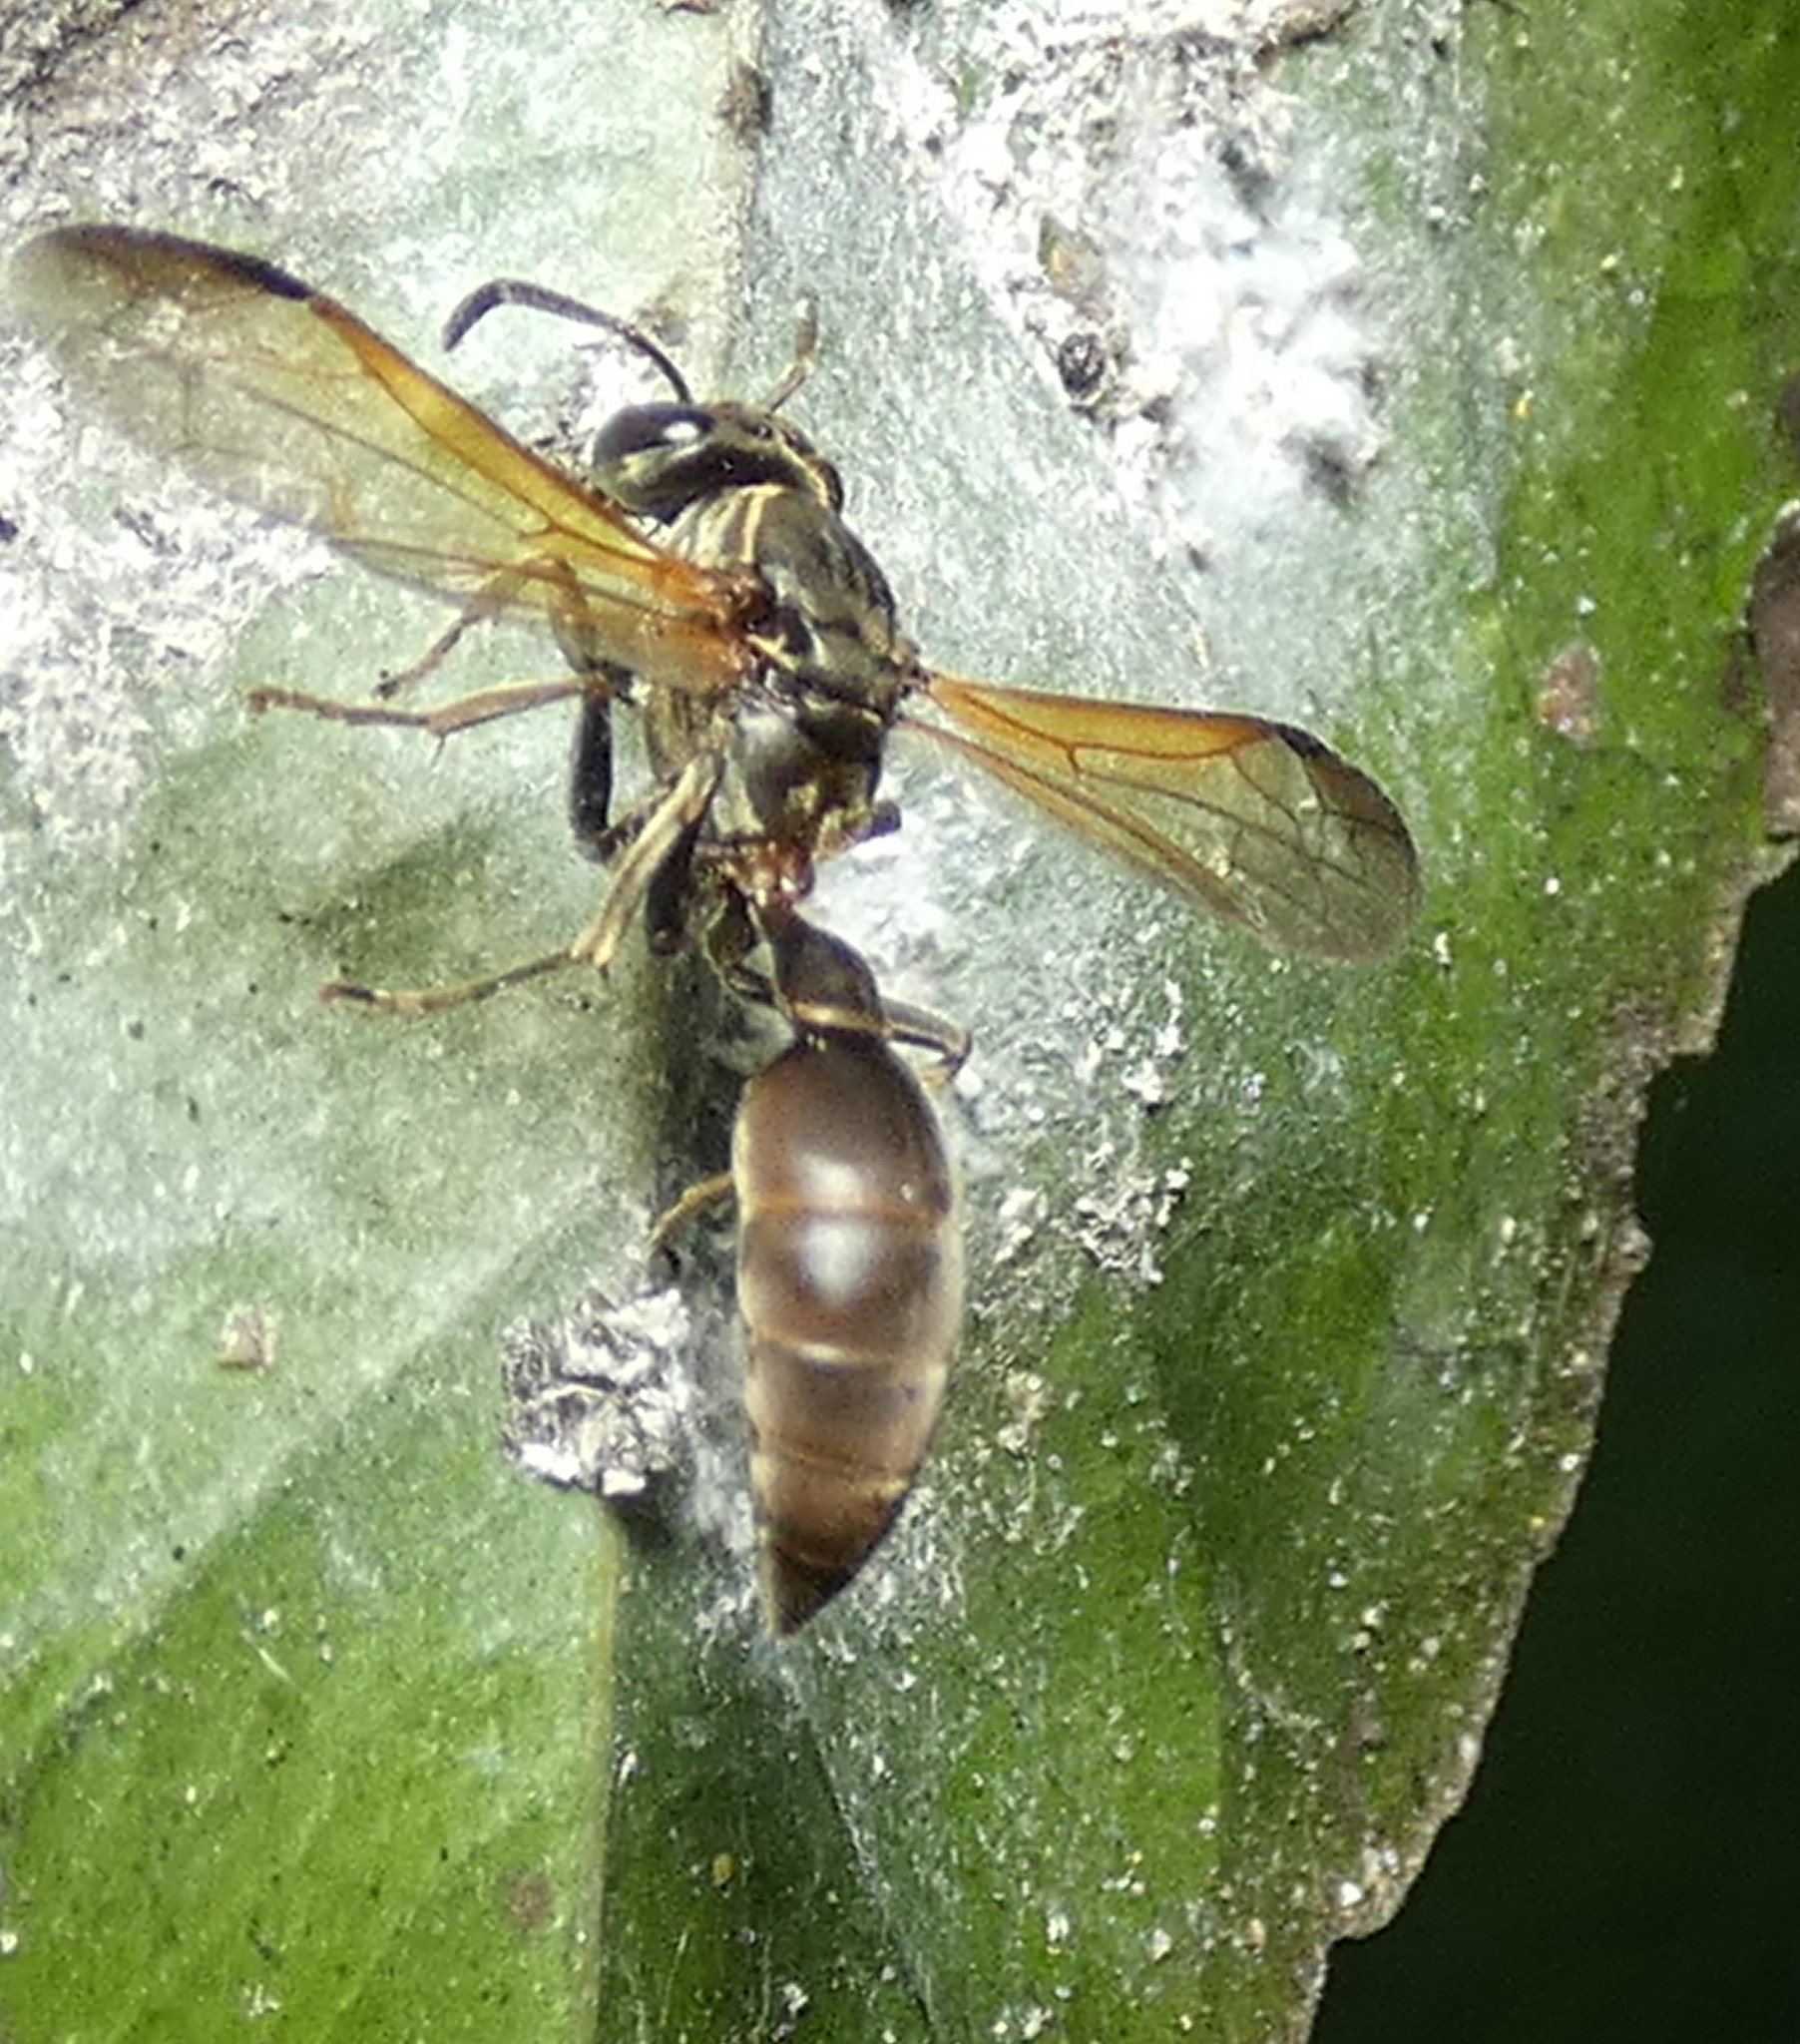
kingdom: Animalia
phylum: Arthropoda
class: Insecta
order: Hymenoptera
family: Eumenidae
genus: Polybia
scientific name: Polybia rejecta
